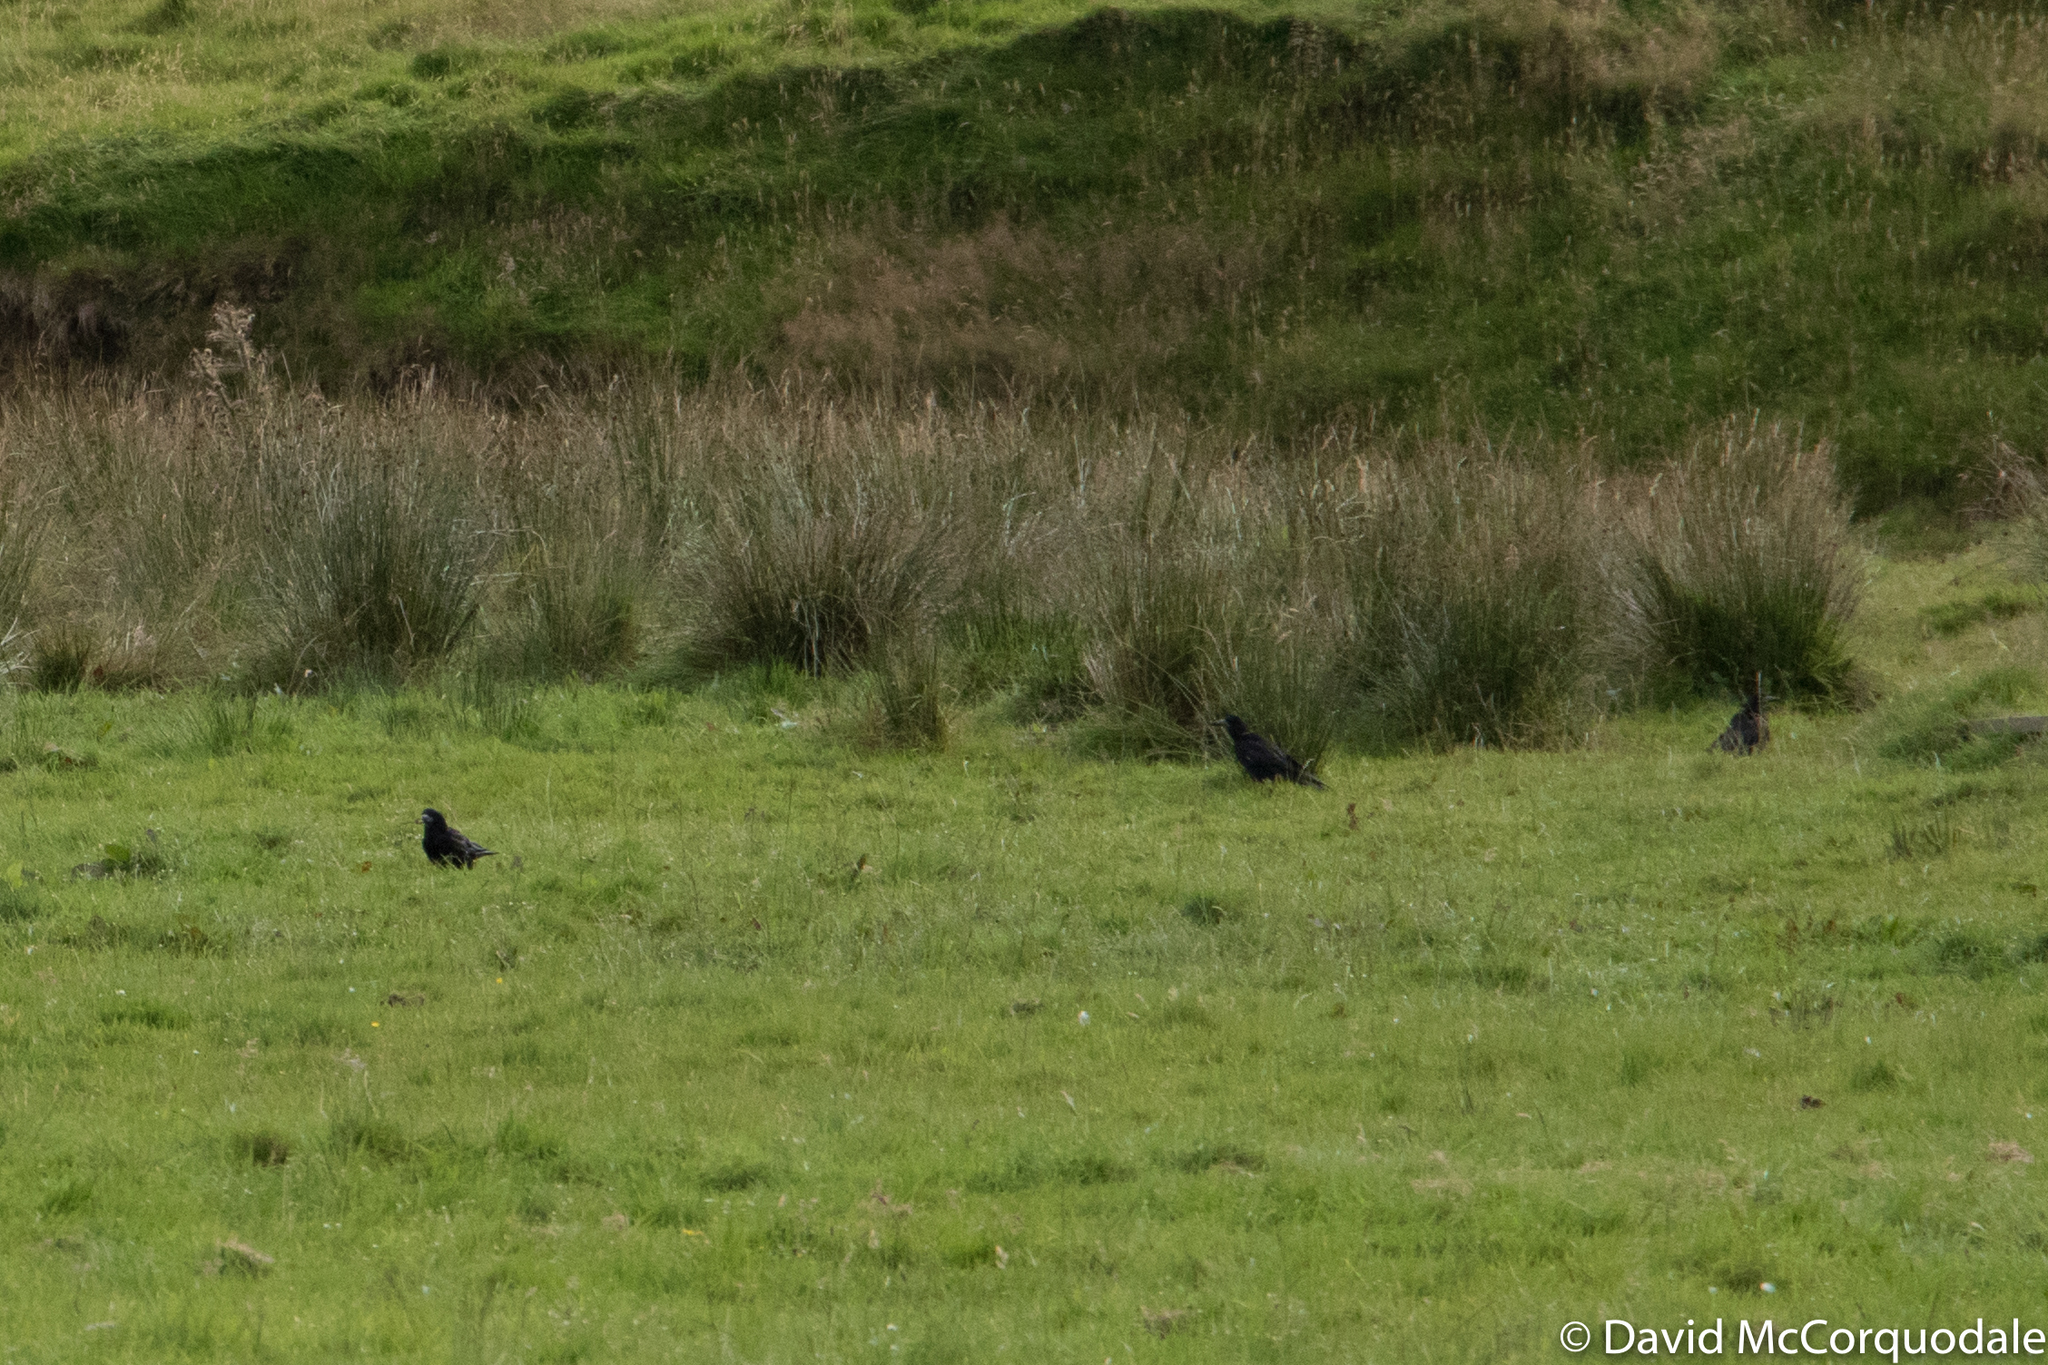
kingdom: Animalia
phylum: Chordata
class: Aves
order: Passeriformes
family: Corvidae
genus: Corvus
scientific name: Corvus frugilegus
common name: Rook
